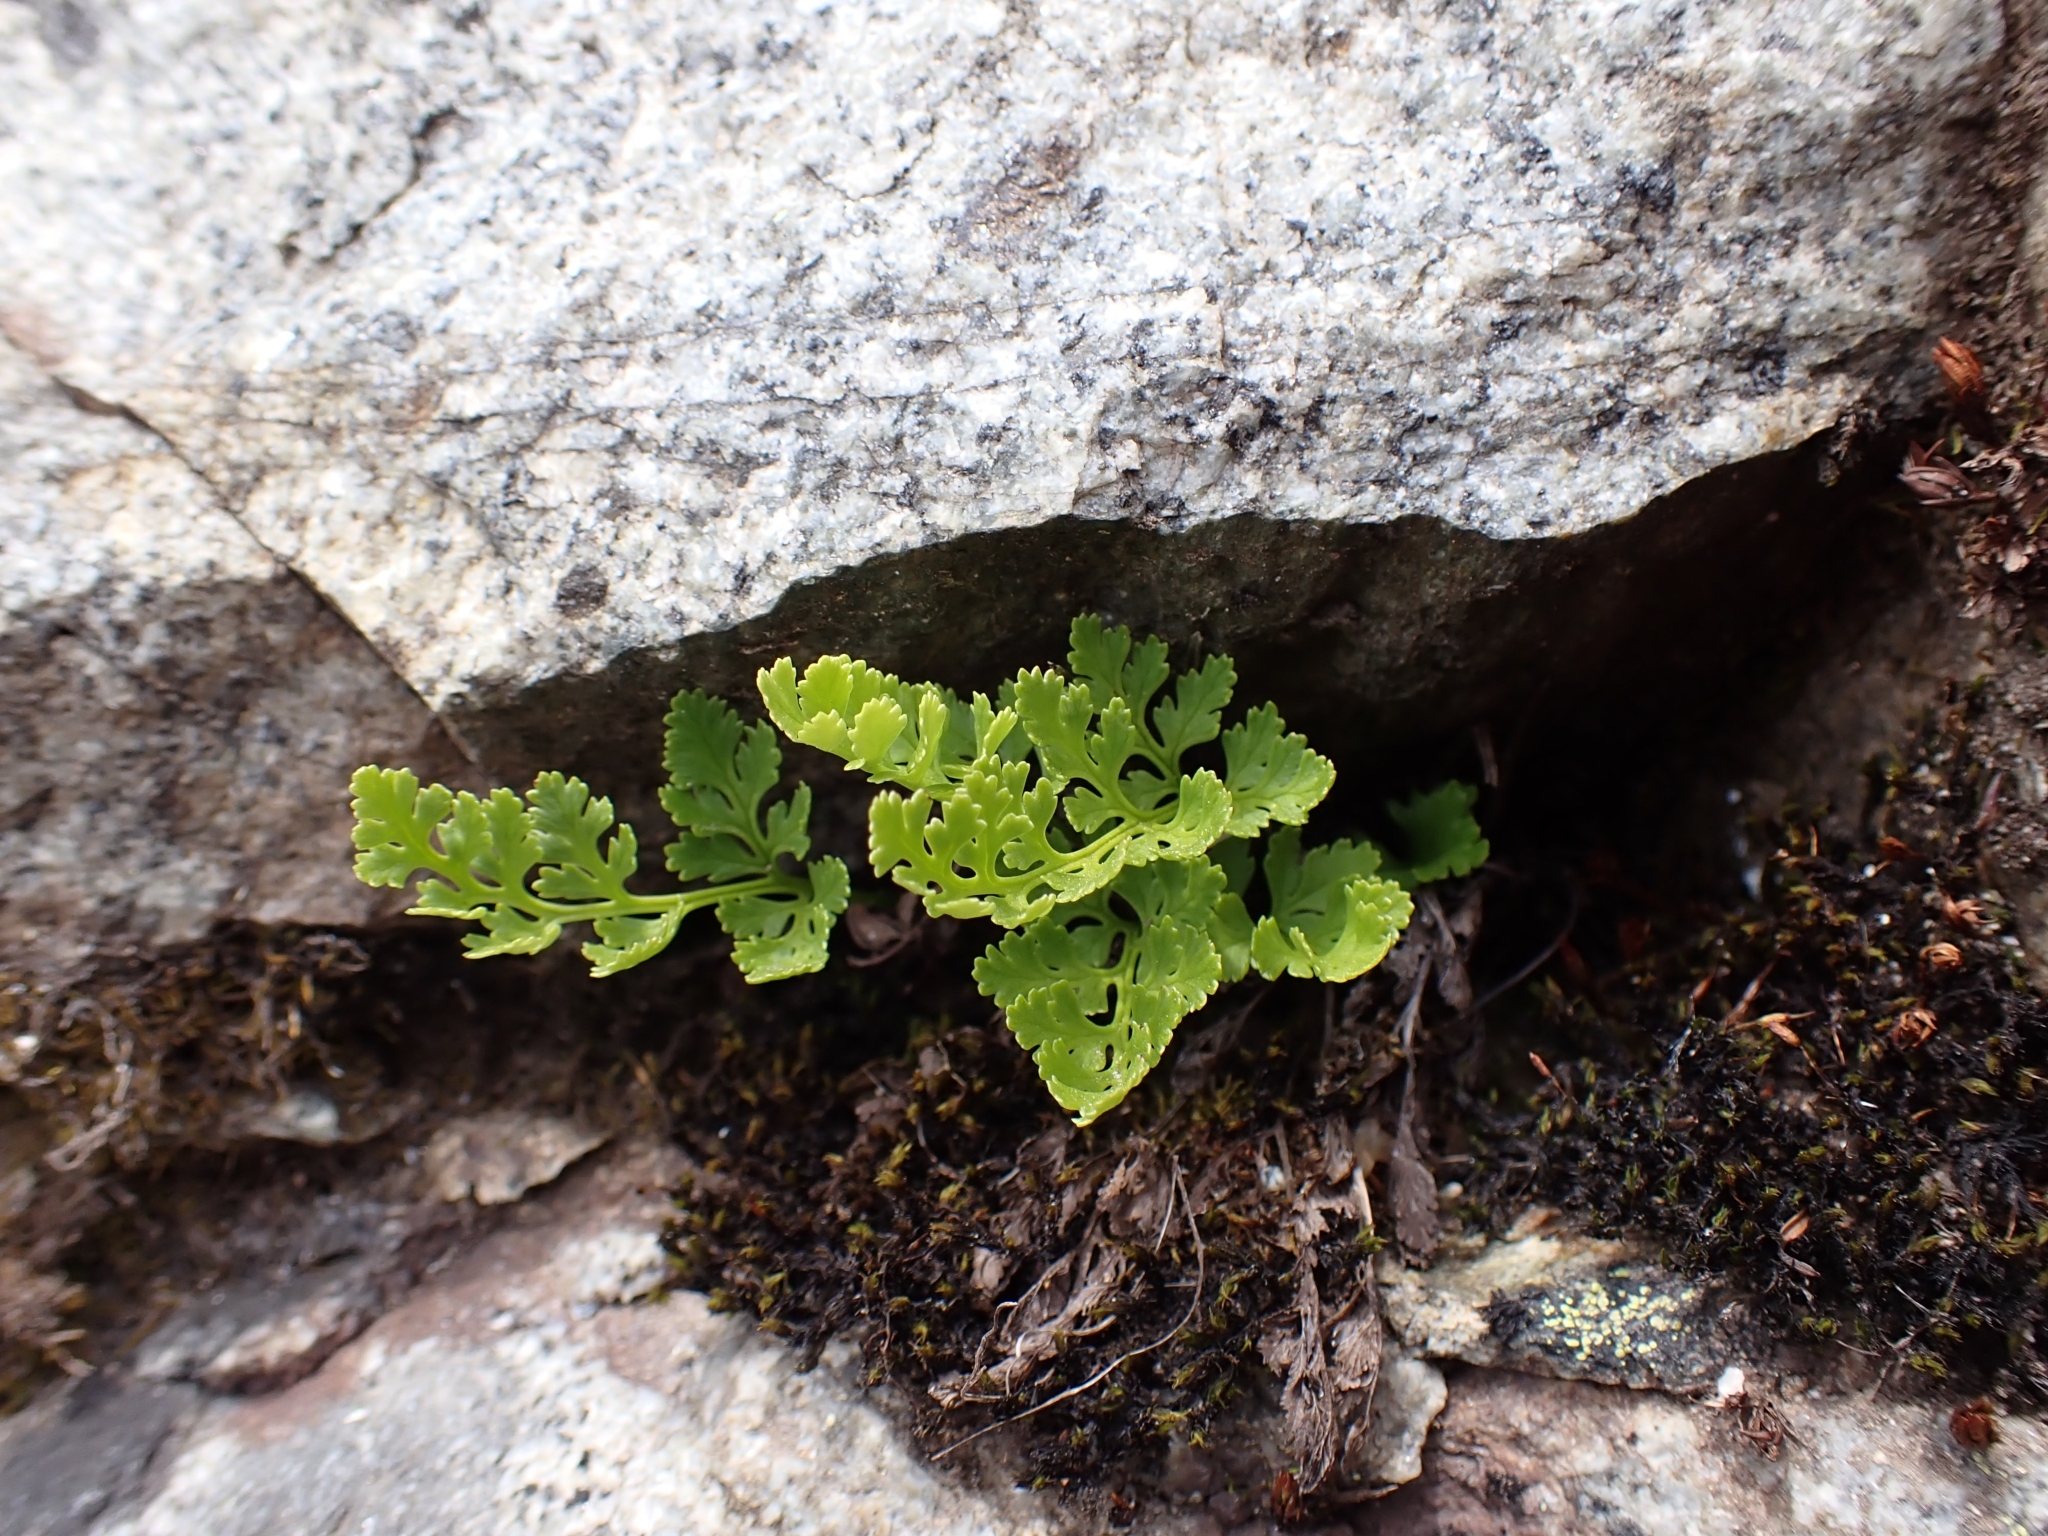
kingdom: Plantae
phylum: Tracheophyta
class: Polypodiopsida
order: Polypodiales
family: Pteridaceae
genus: Cryptogramma
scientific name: Cryptogramma acrostichoides
